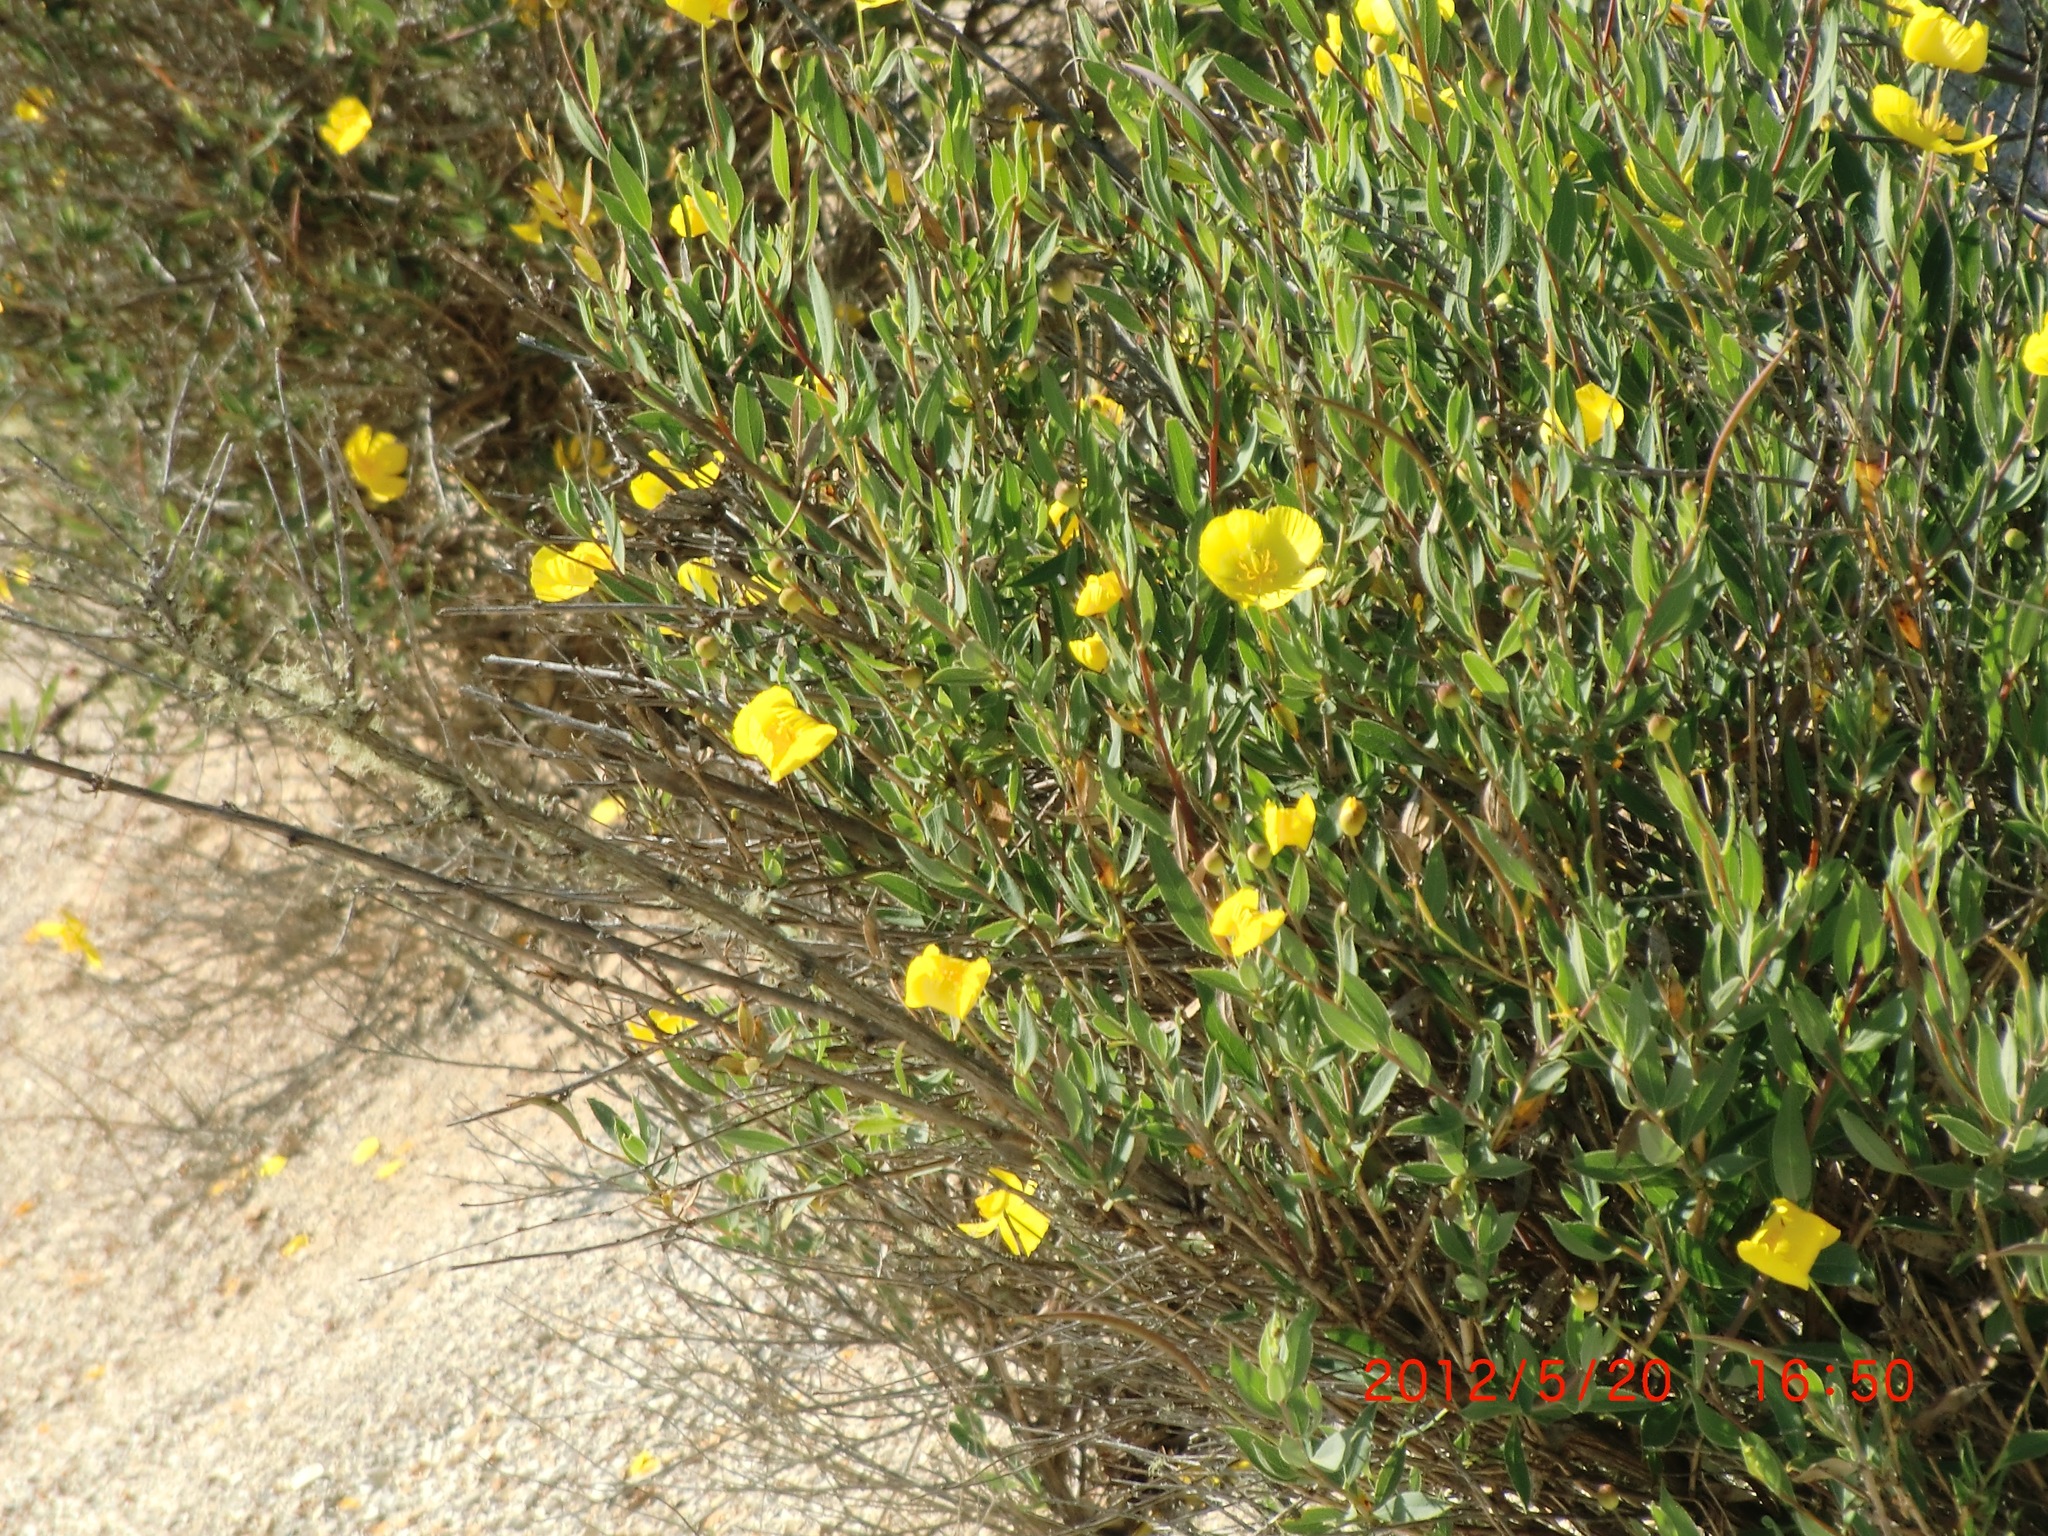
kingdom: Plantae
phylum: Tracheophyta
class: Magnoliopsida
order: Ranunculales
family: Papaveraceae
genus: Dendromecon
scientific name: Dendromecon rigida
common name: Tree poppy
